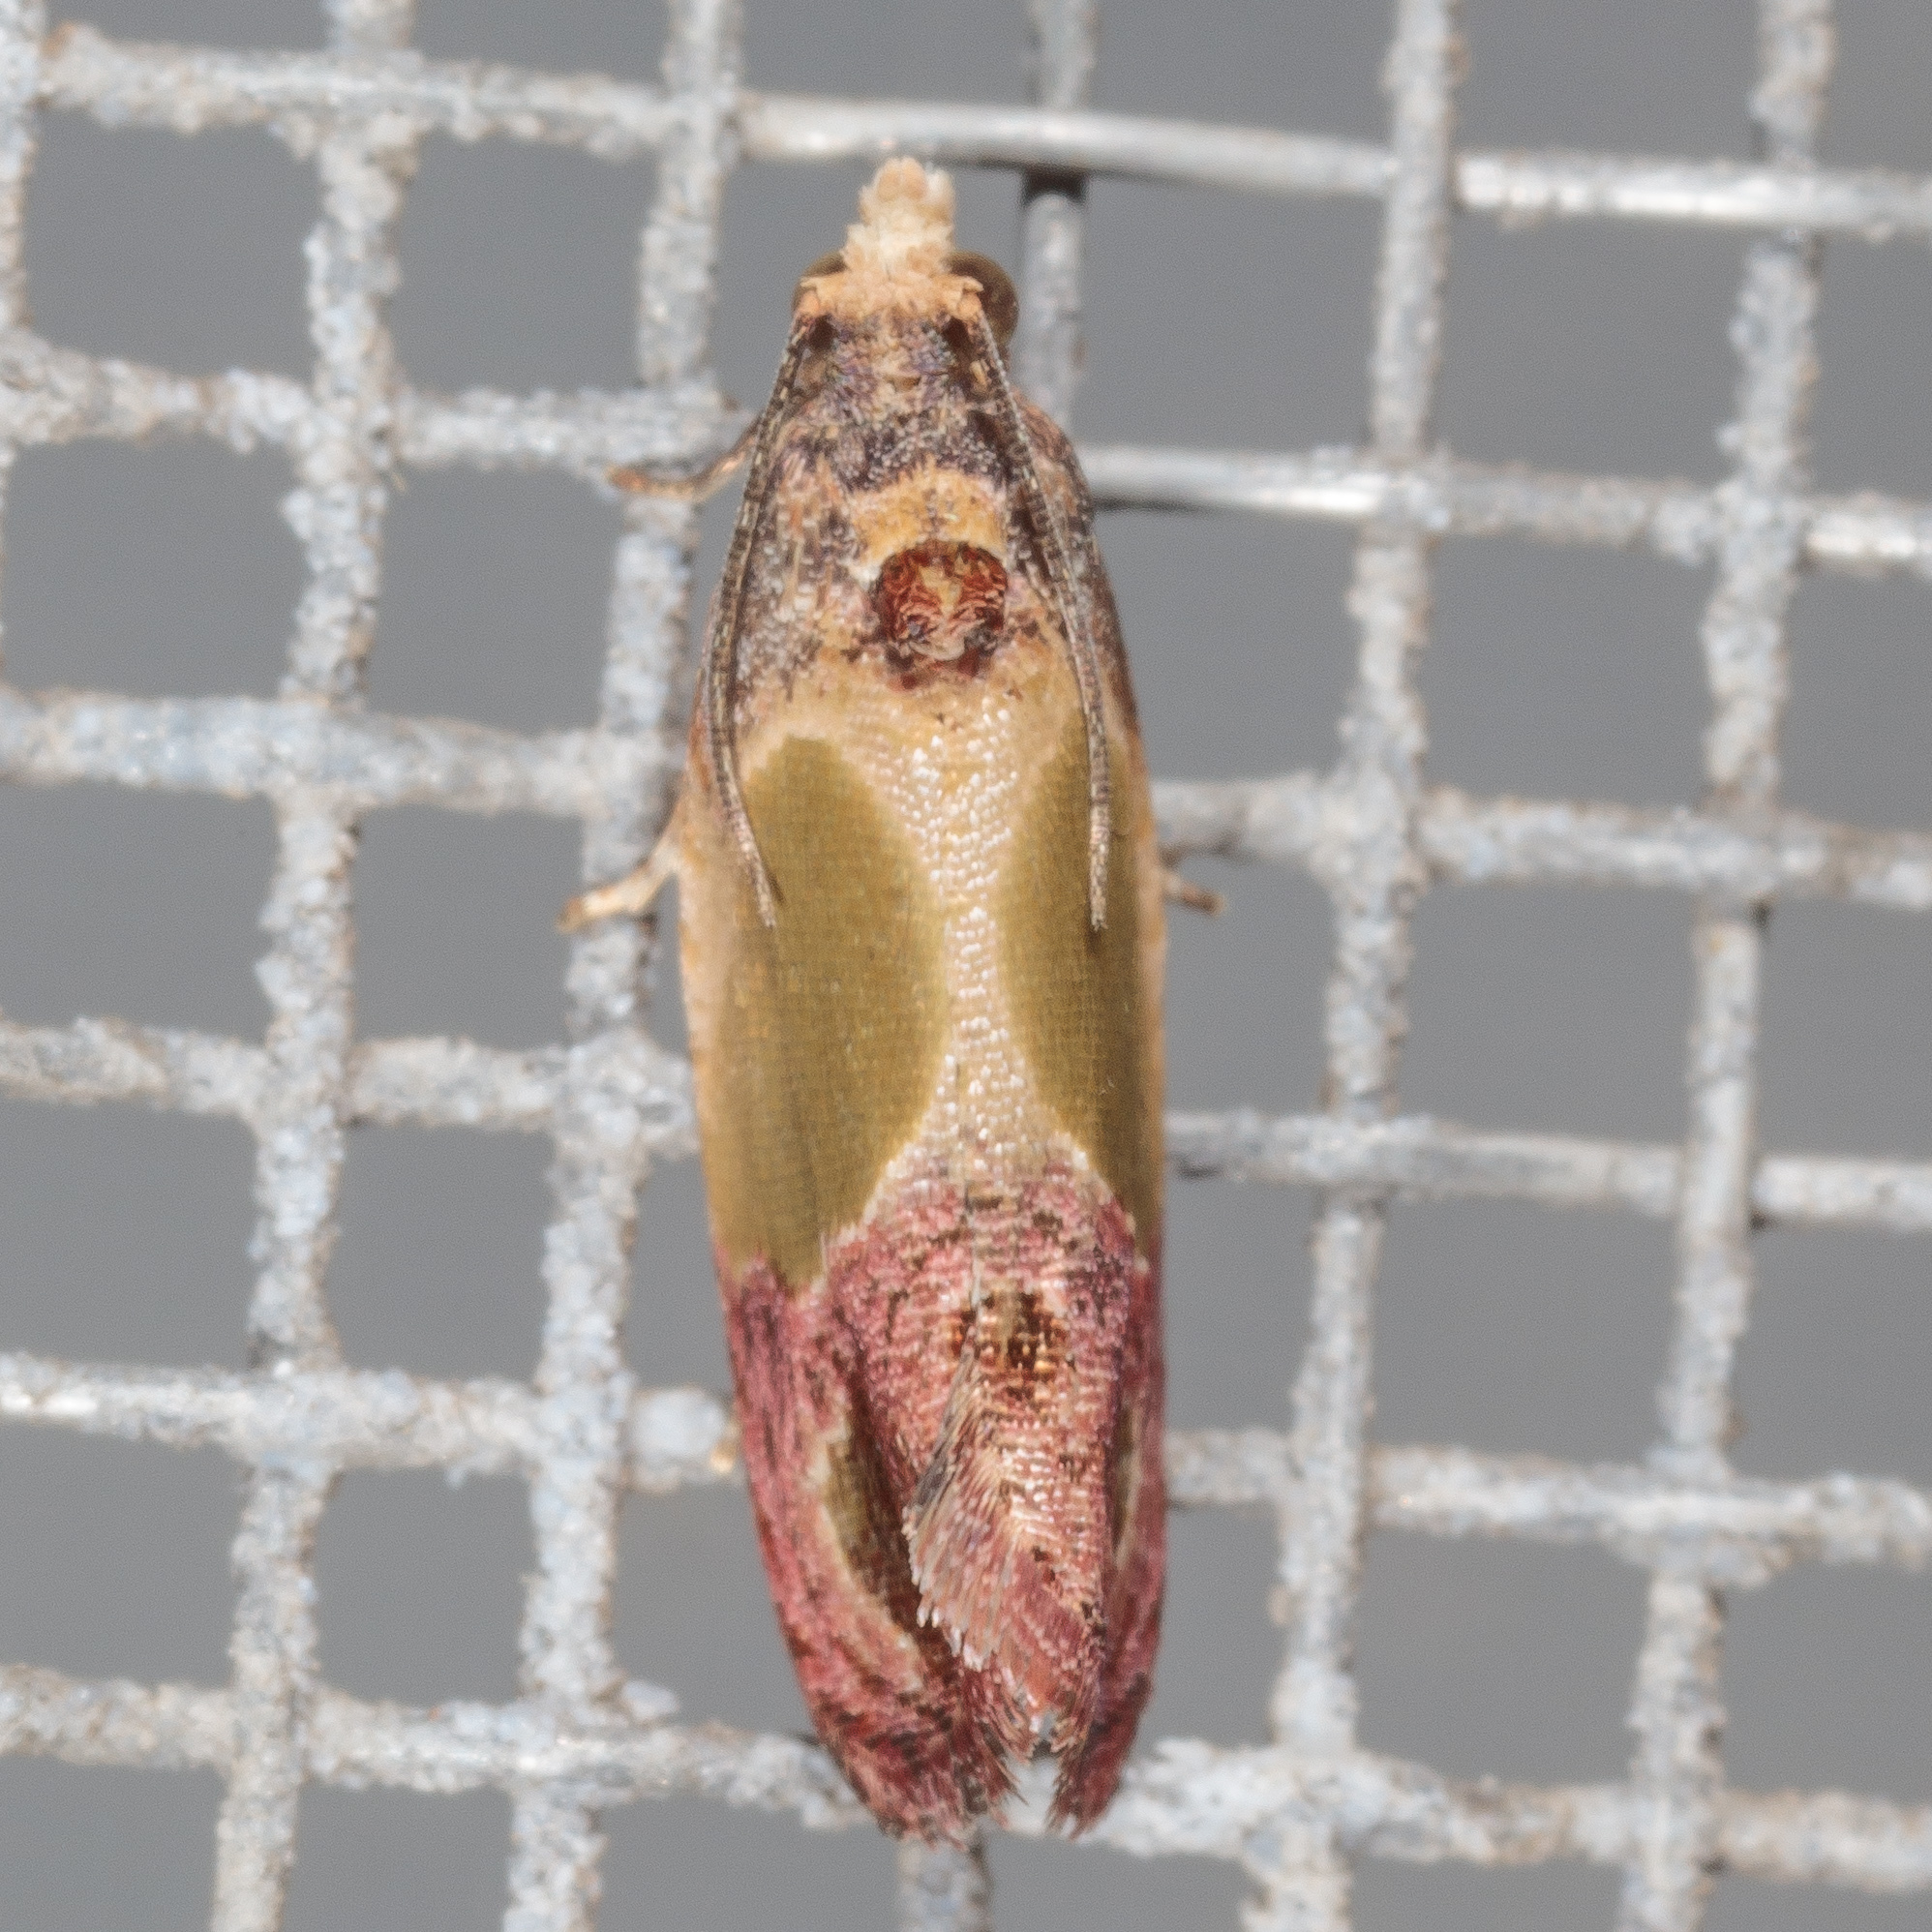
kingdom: Animalia
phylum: Arthropoda
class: Insecta
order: Lepidoptera
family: Tortricidae
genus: Eumarozia
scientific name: Eumarozia malachitana
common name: Sculptured moth
